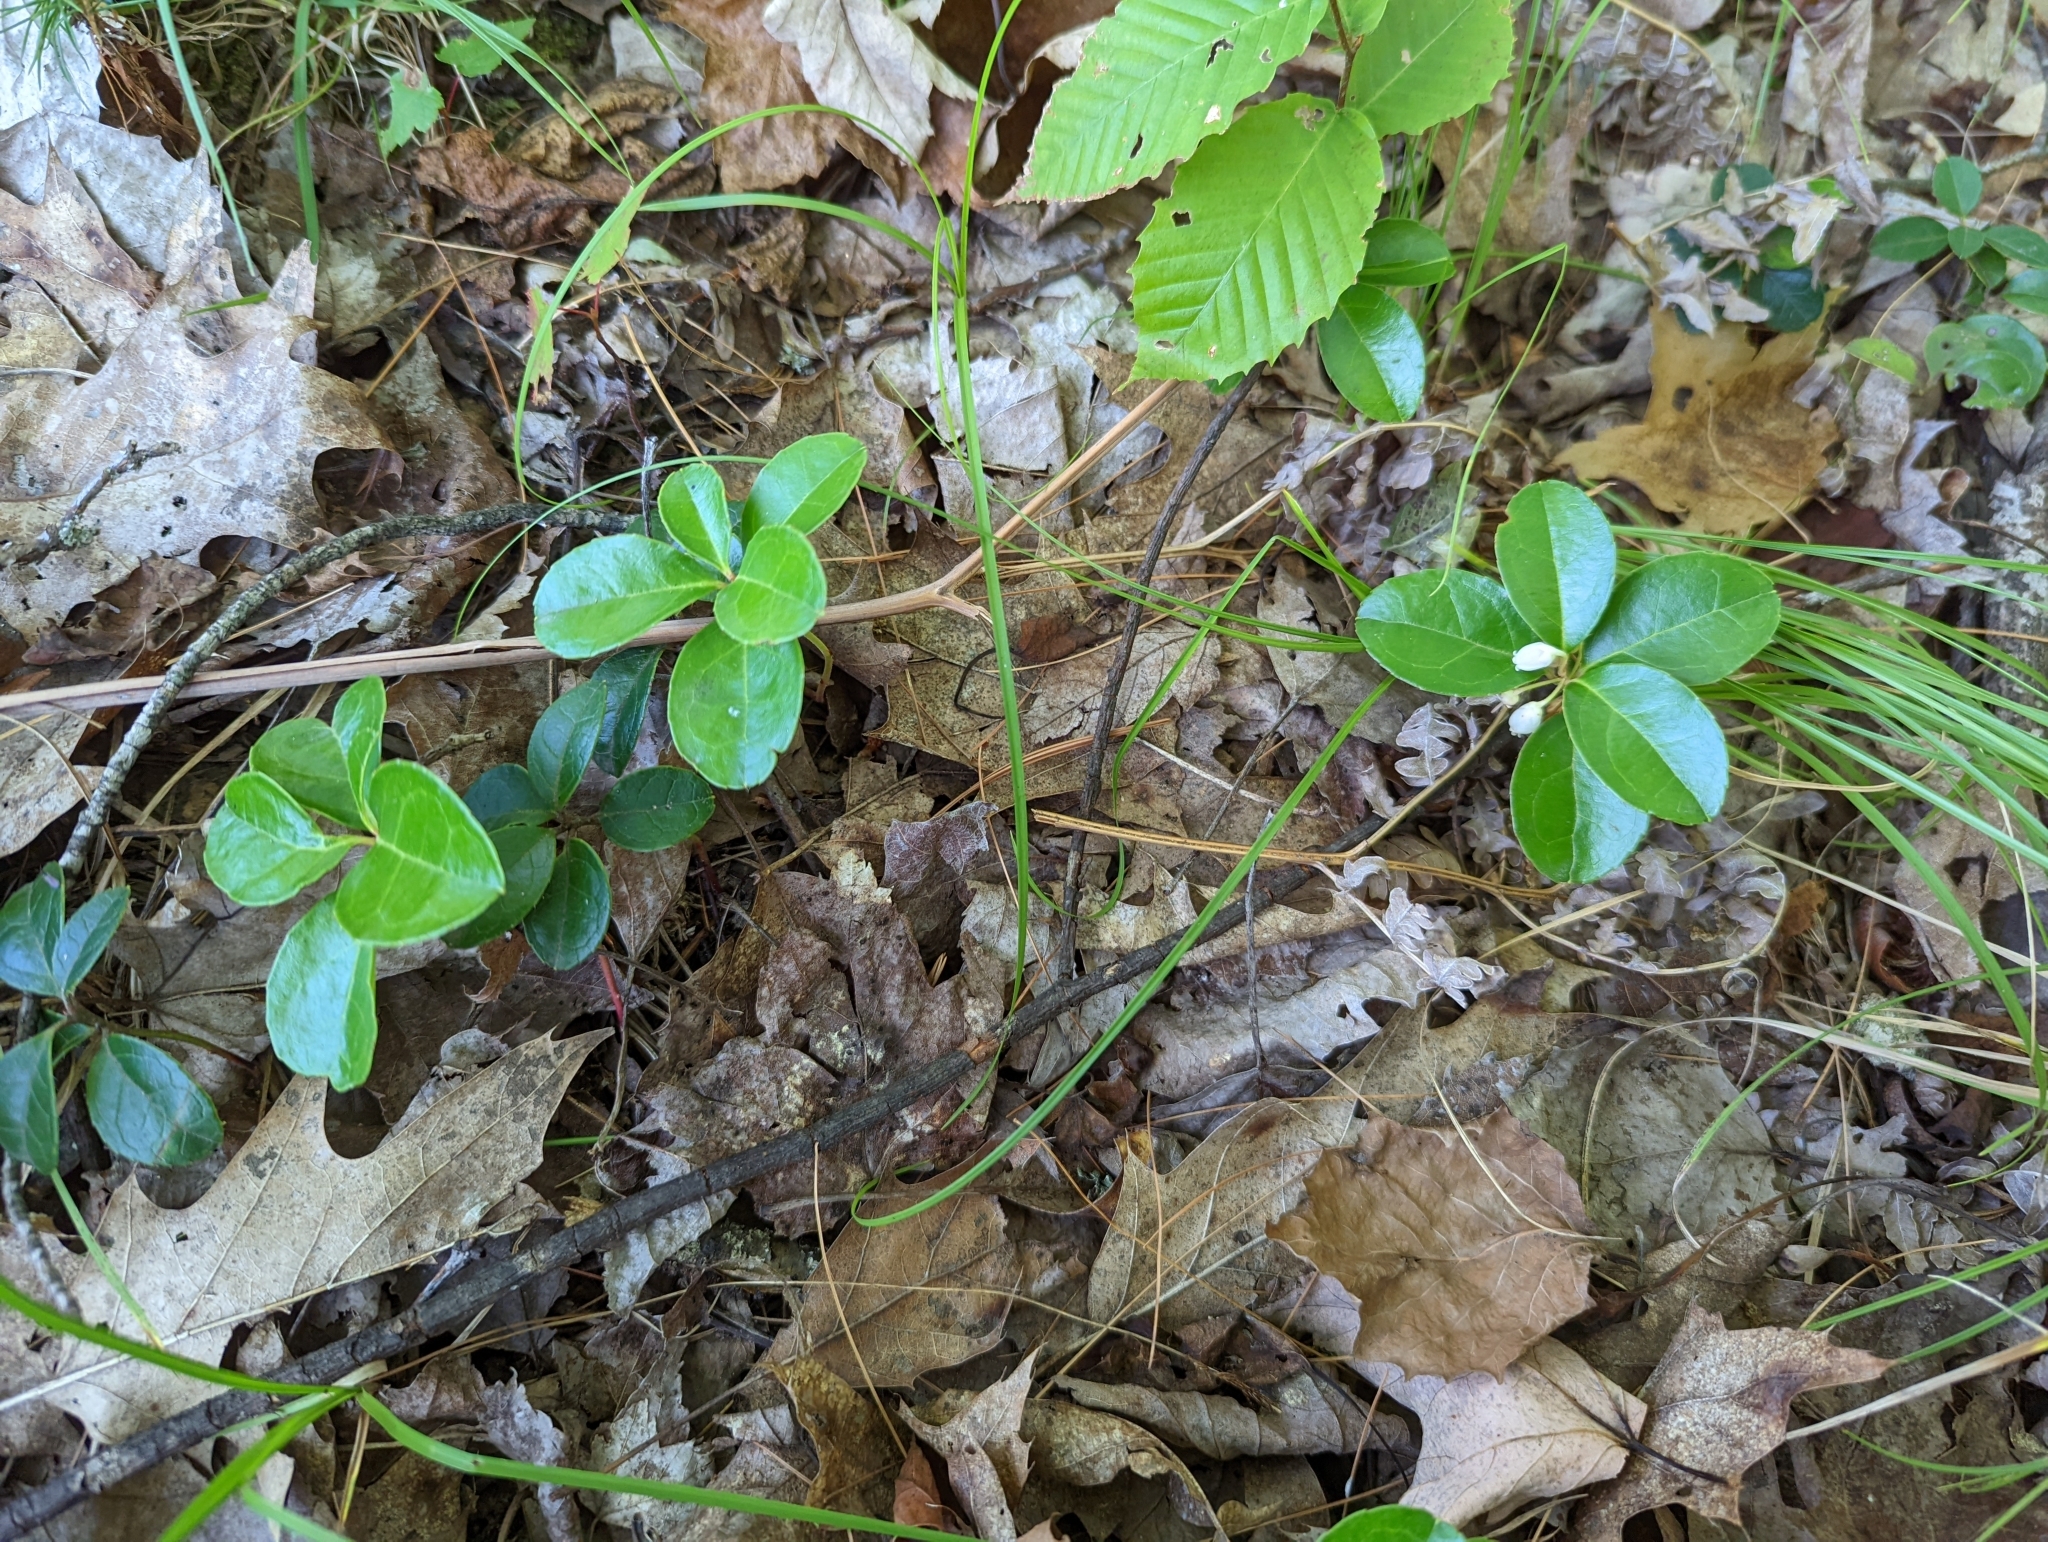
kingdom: Plantae
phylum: Tracheophyta
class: Magnoliopsida
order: Ericales
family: Ericaceae
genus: Gaultheria
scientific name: Gaultheria procumbens
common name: Checkerberry
